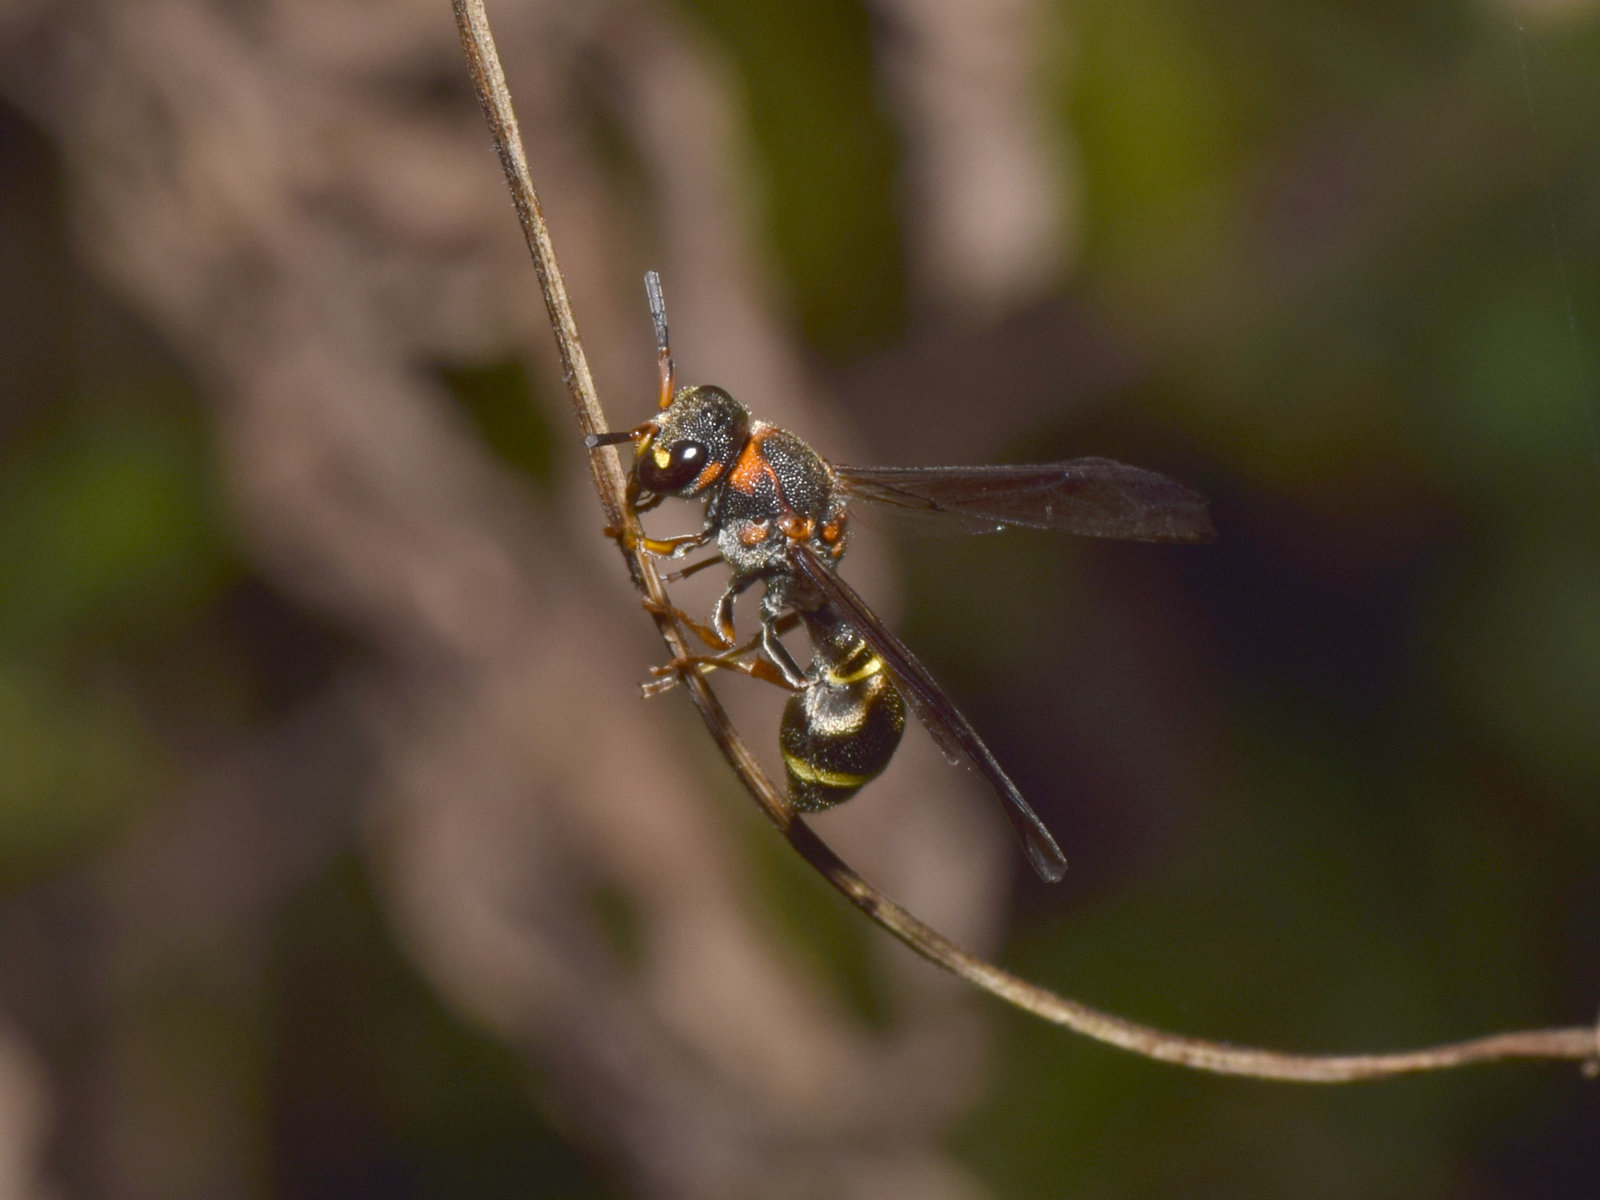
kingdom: Animalia
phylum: Arthropoda
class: Insecta
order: Hymenoptera
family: Eumenidae
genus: Apodynerus
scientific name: Apodynerus formosensis
